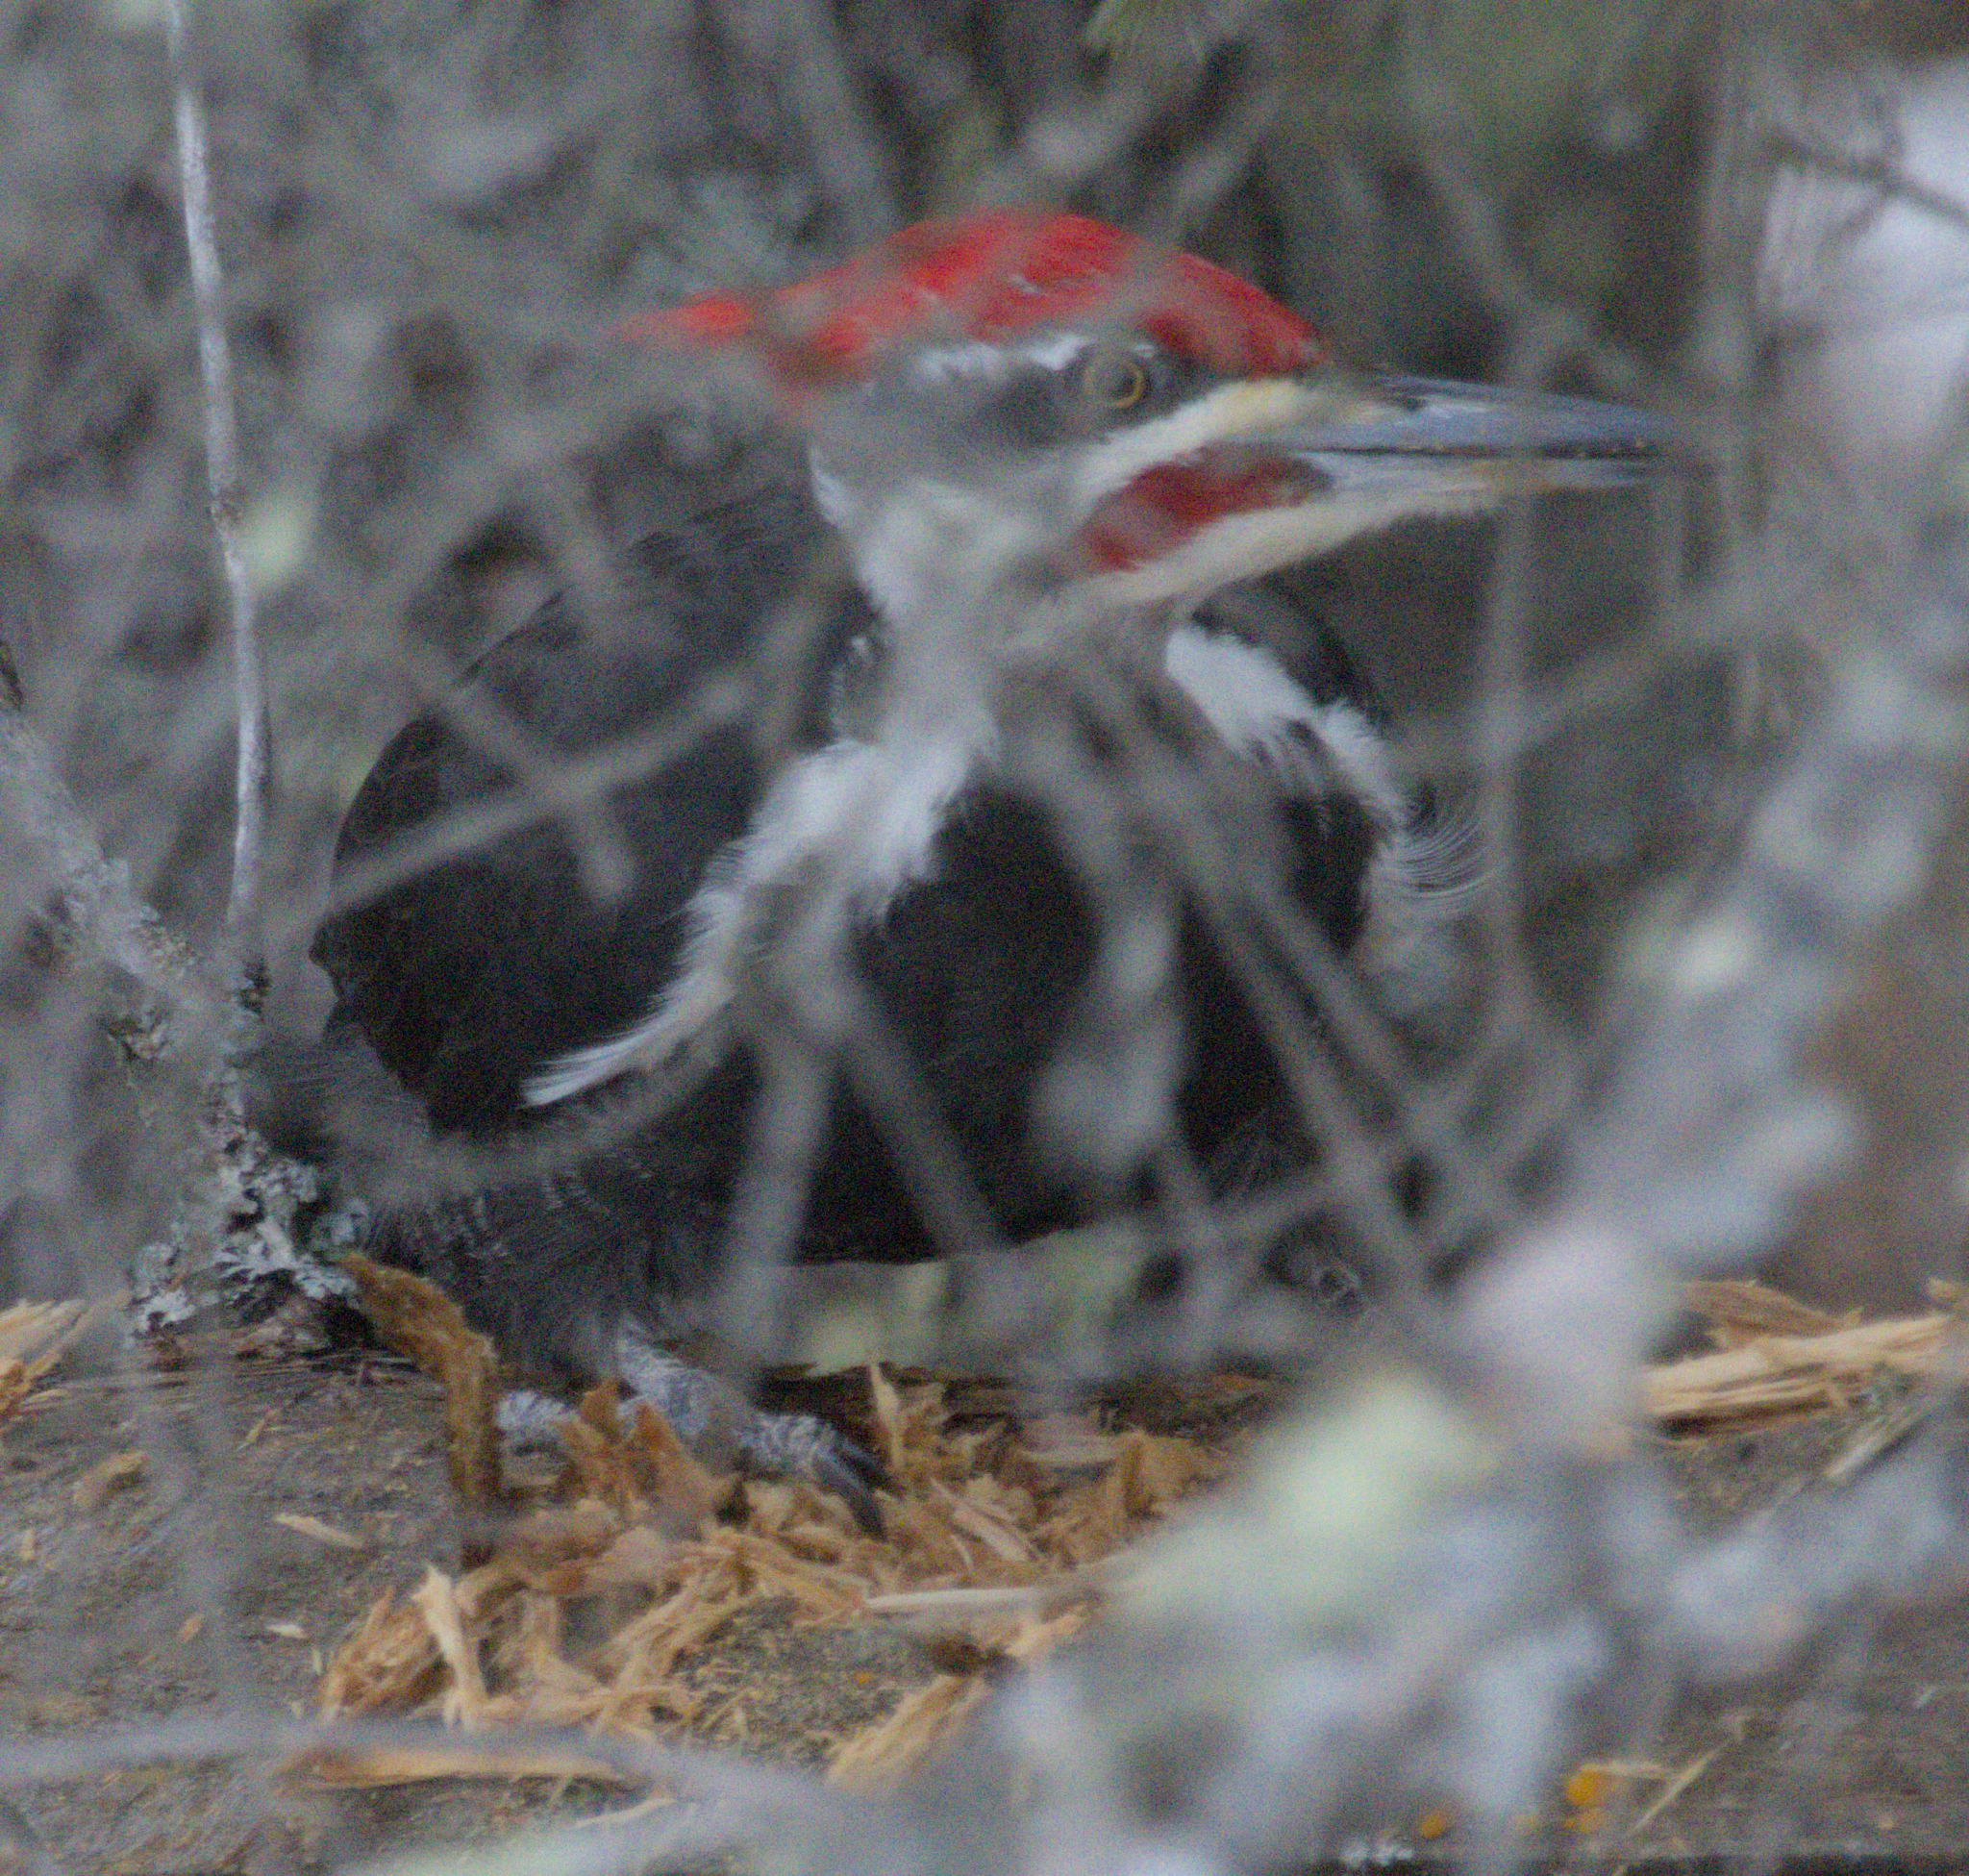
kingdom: Animalia
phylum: Chordata
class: Aves
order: Piciformes
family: Picidae
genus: Dryocopus
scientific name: Dryocopus pileatus
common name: Pileated woodpecker
